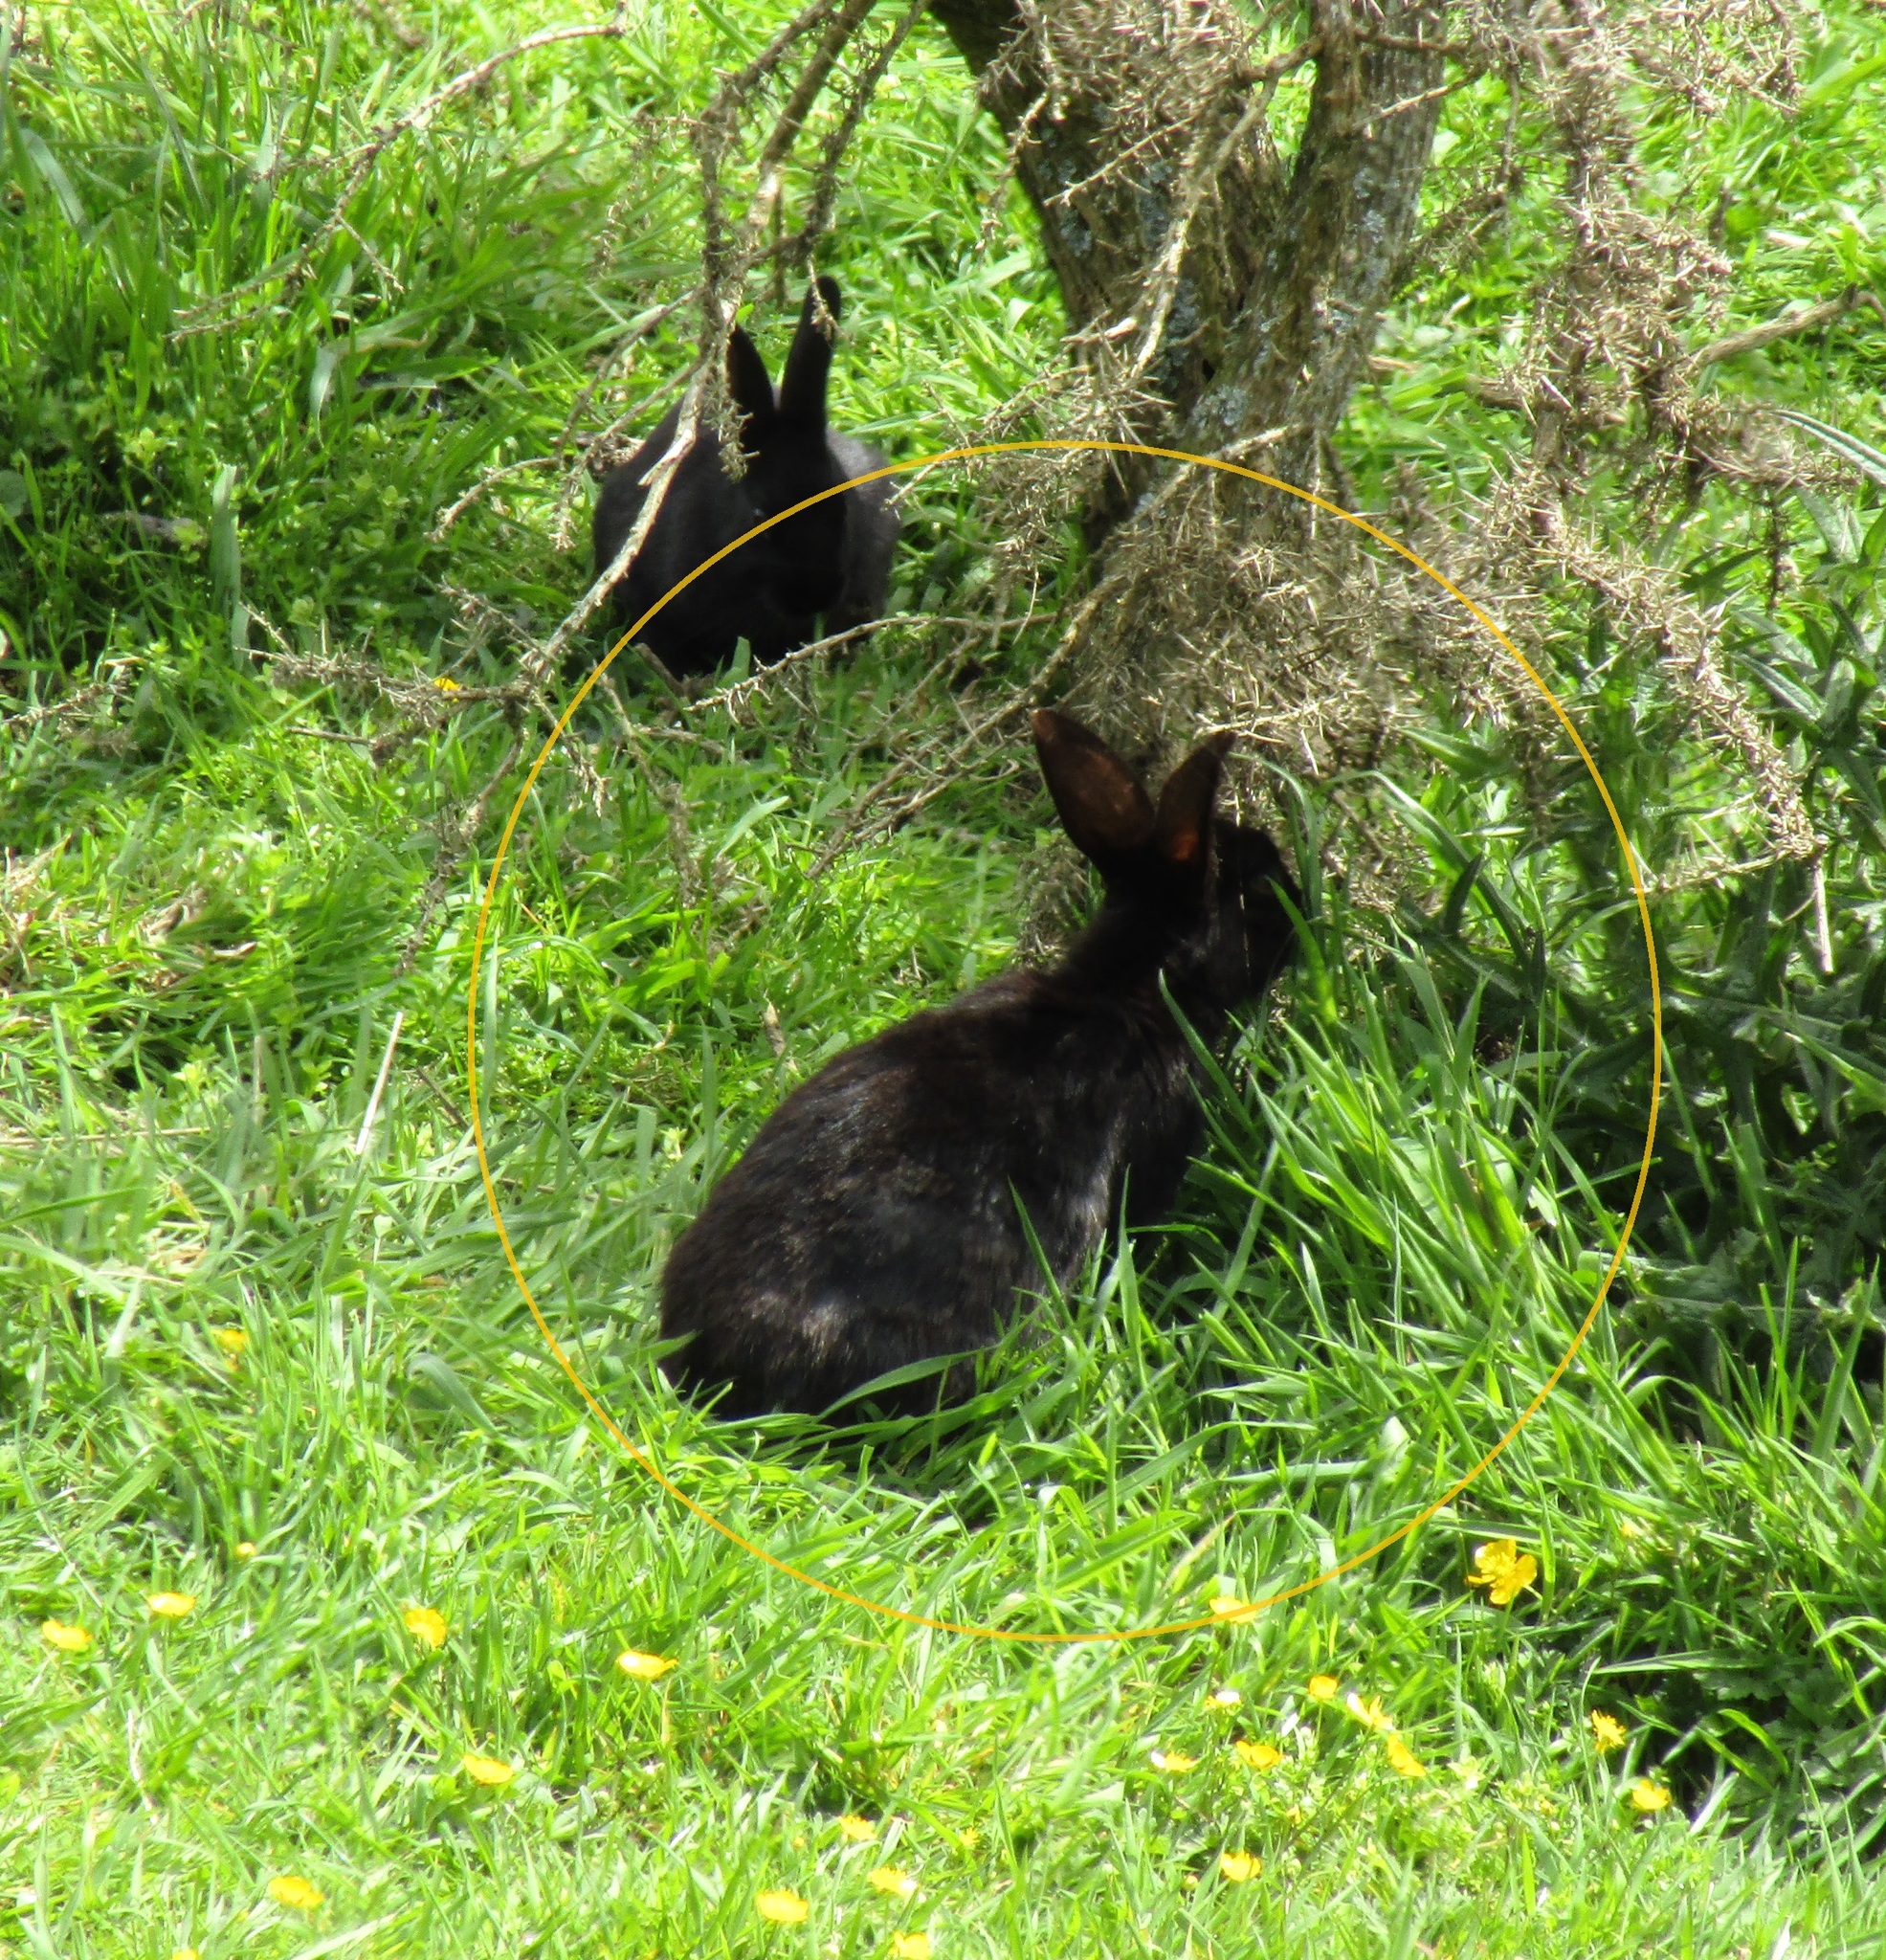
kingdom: Animalia
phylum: Chordata
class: Mammalia
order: Lagomorpha
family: Leporidae
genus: Oryctolagus
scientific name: Oryctolagus cuniculus
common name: European rabbit
